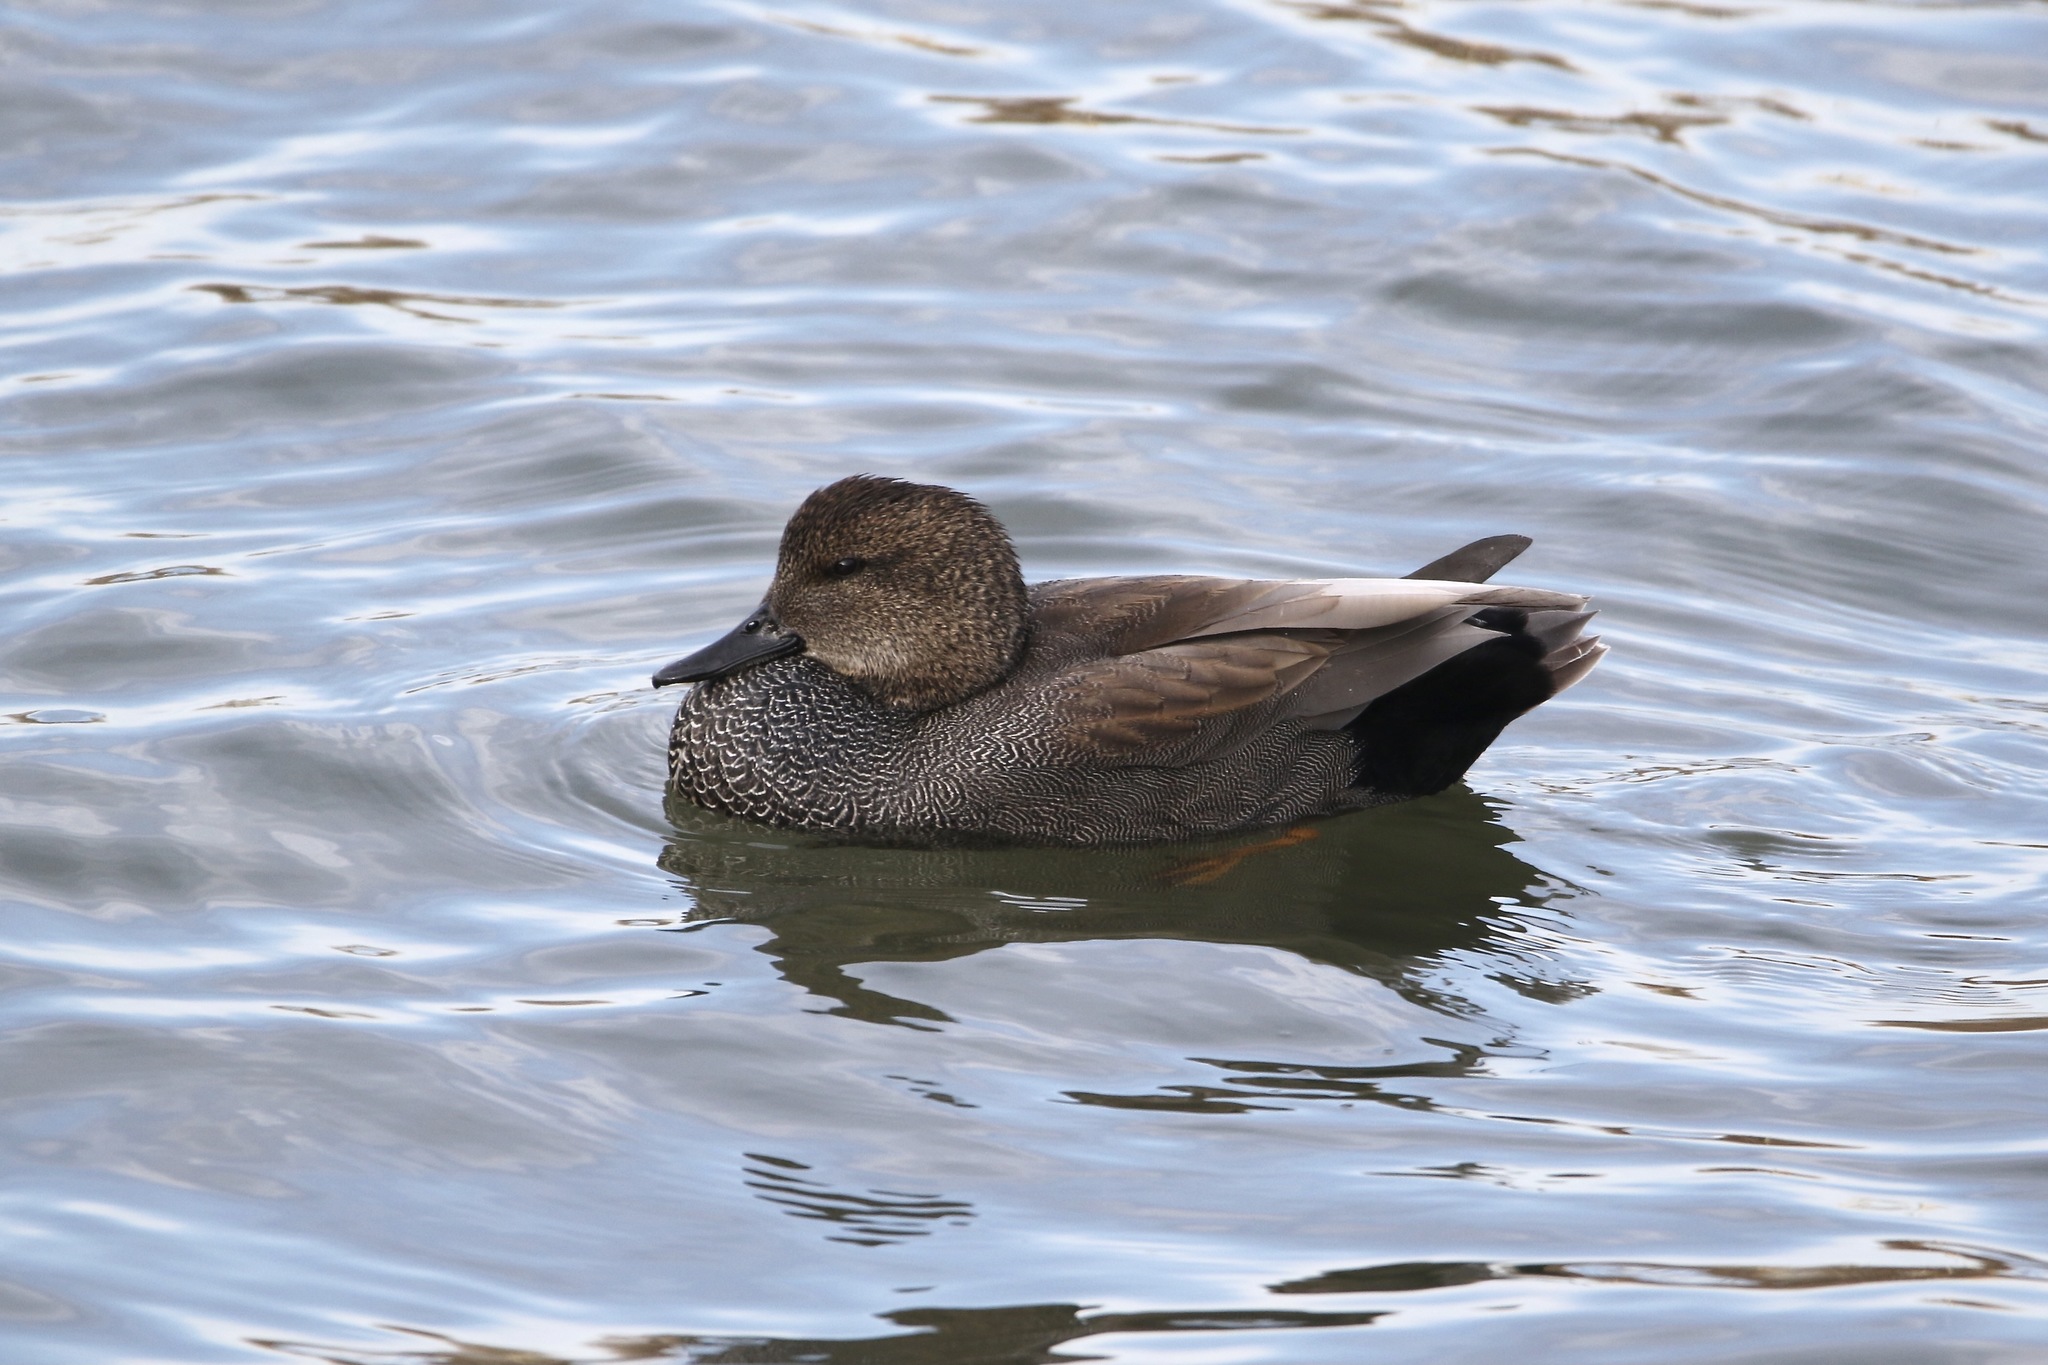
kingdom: Animalia
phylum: Chordata
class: Aves
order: Anseriformes
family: Anatidae
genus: Mareca
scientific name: Mareca strepera
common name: Gadwall
